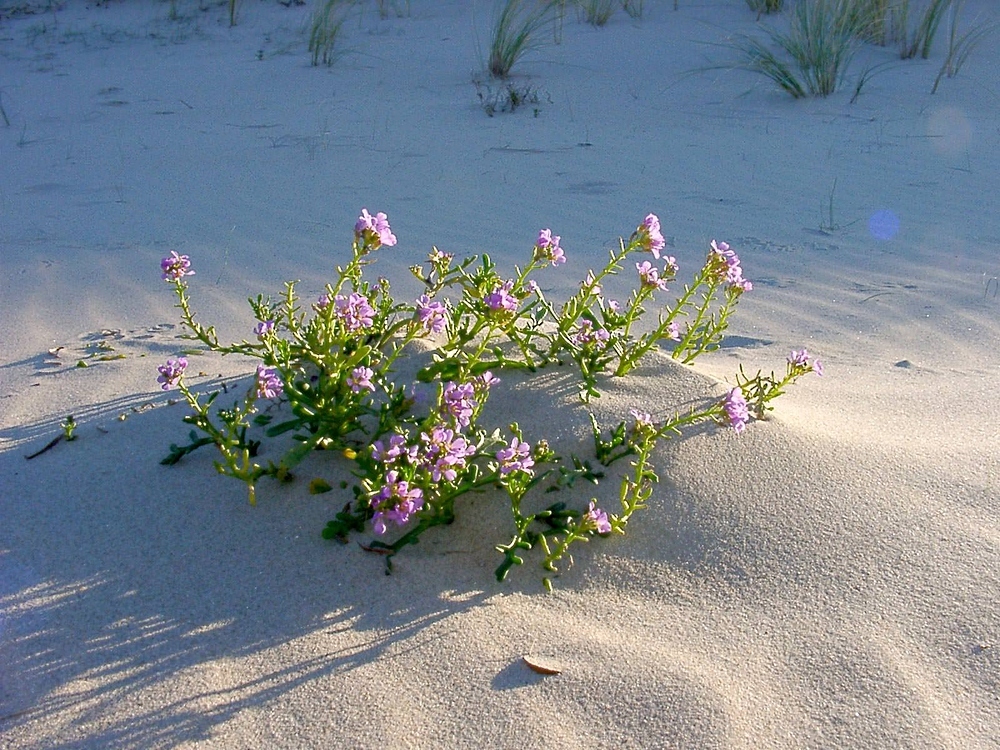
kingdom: Plantae
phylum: Tracheophyta
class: Magnoliopsida
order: Brassicales
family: Brassicaceae
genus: Cakile
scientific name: Cakile maritima
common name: Sea rocket
